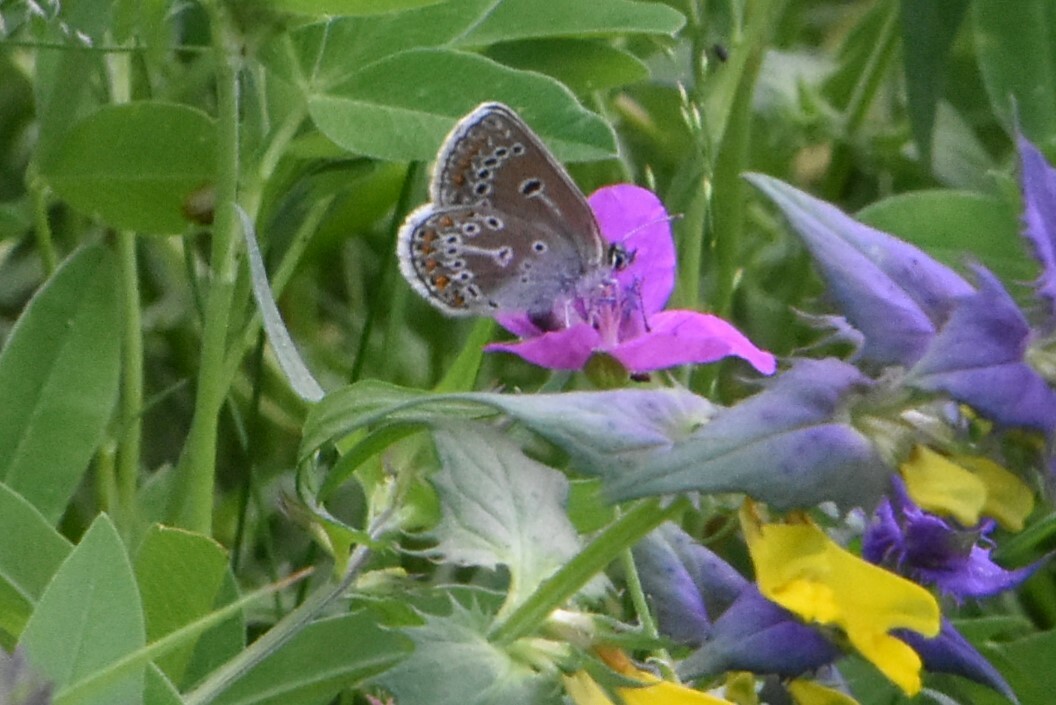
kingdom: Animalia
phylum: Arthropoda
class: Insecta
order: Lepidoptera
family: Lycaenidae
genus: Eumedonia
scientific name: Eumedonia eumedon
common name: Geranium argus
